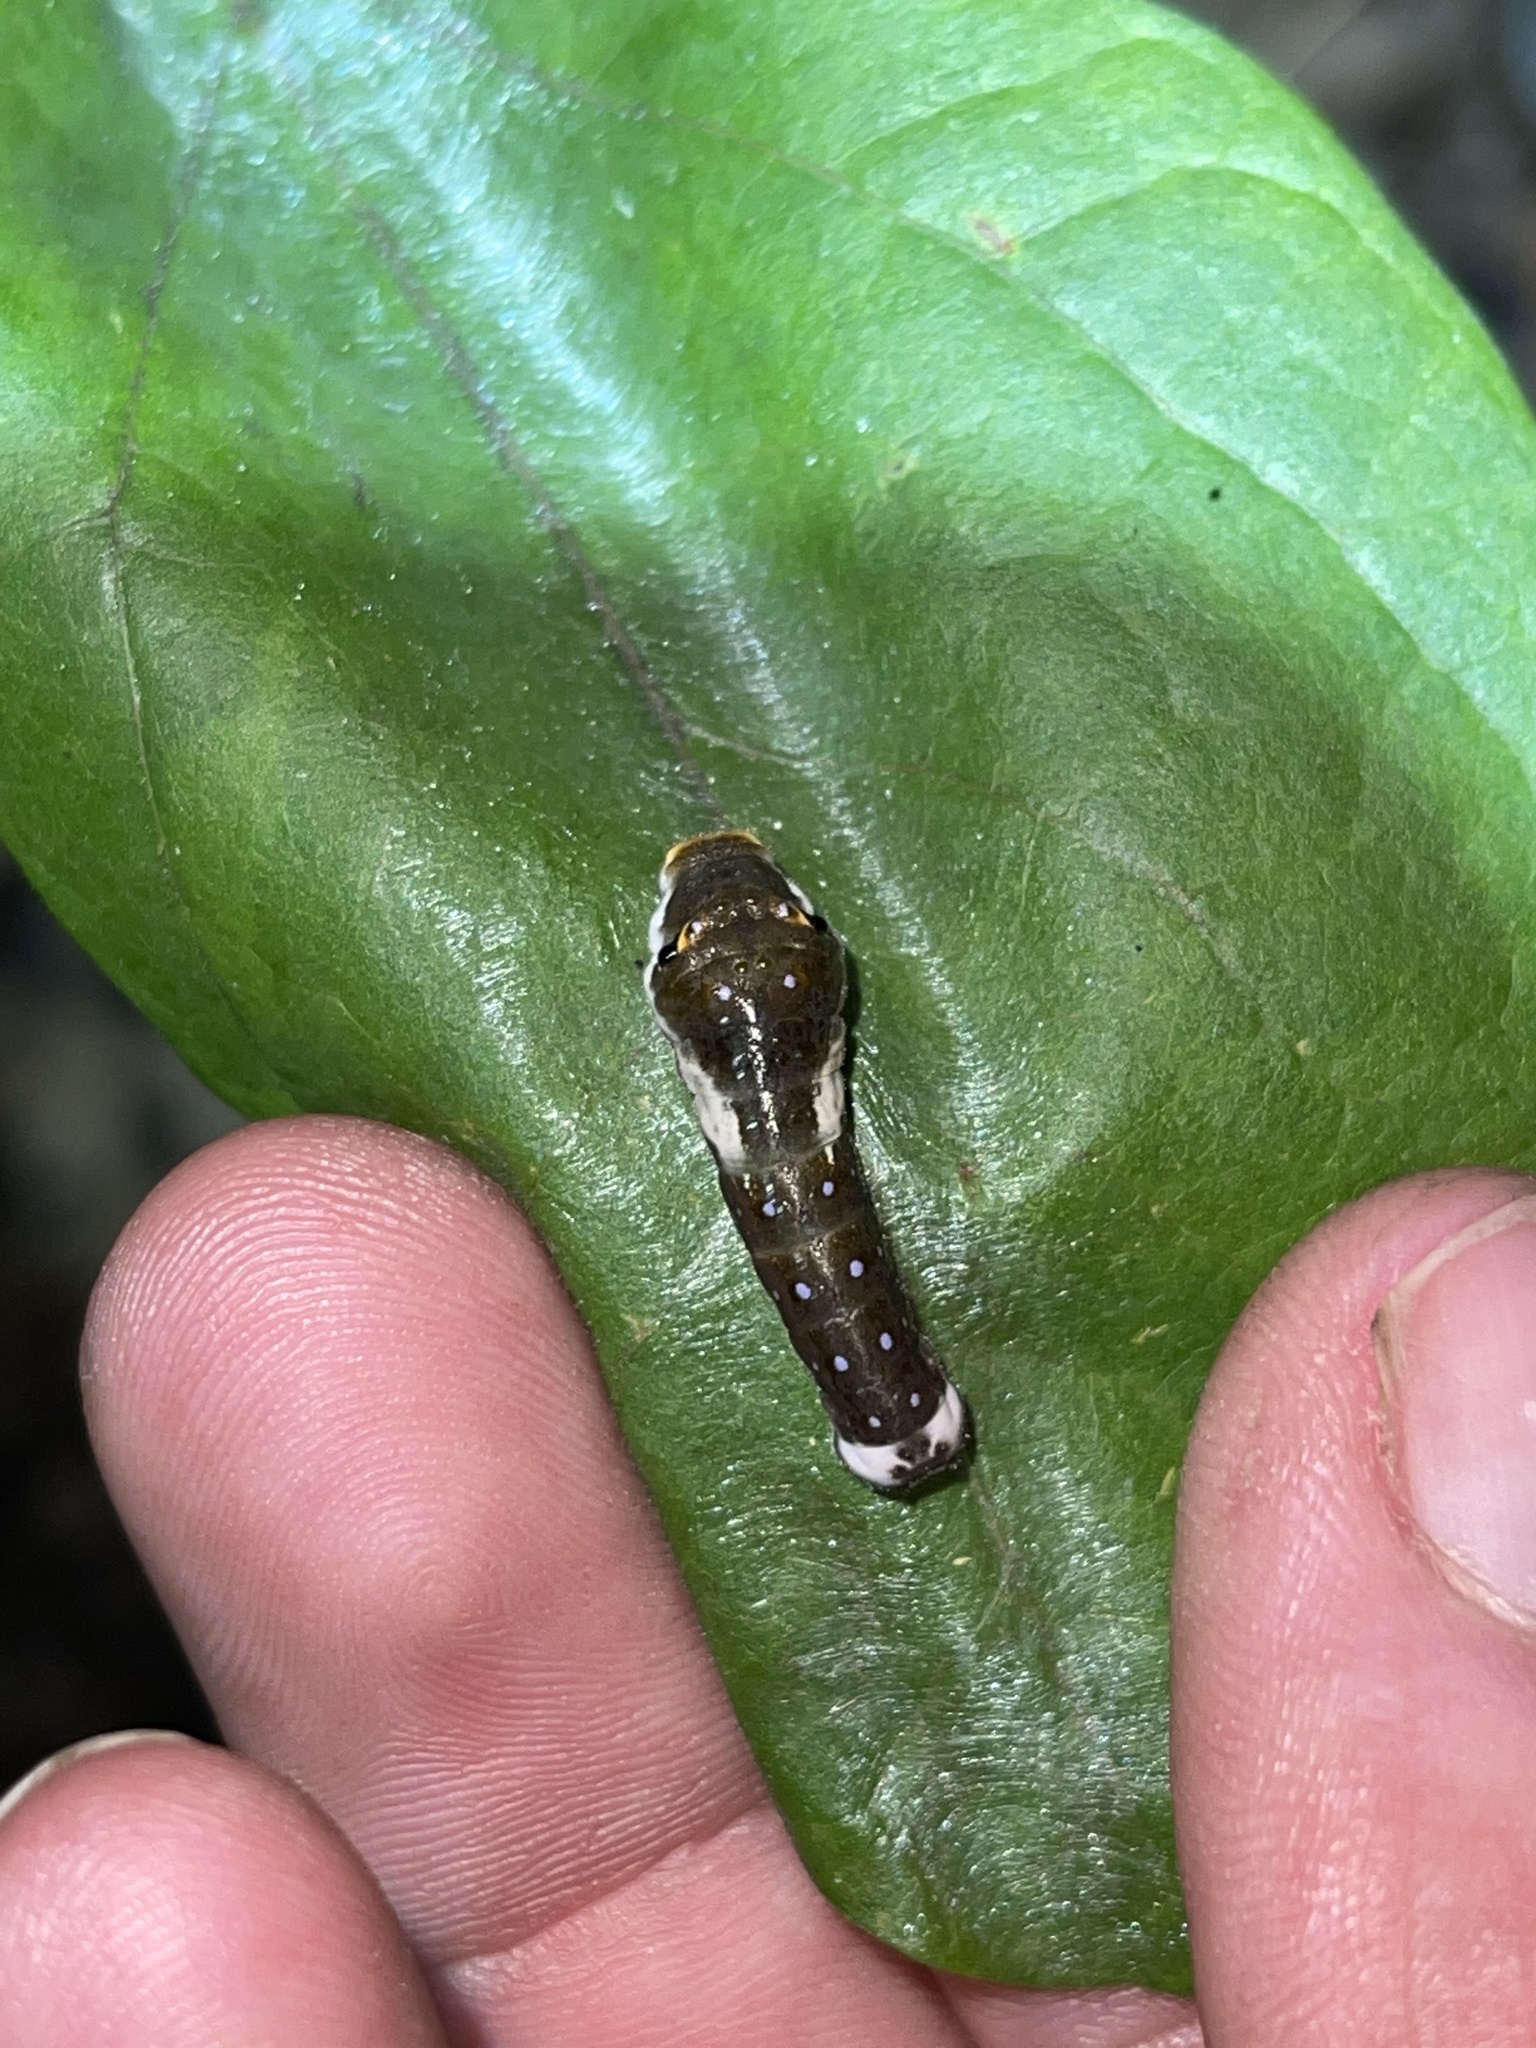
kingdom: Animalia
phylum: Arthropoda
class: Insecta
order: Lepidoptera
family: Papilionidae
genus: Papilio
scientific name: Papilio troilus
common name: Spicebush swallowtail
